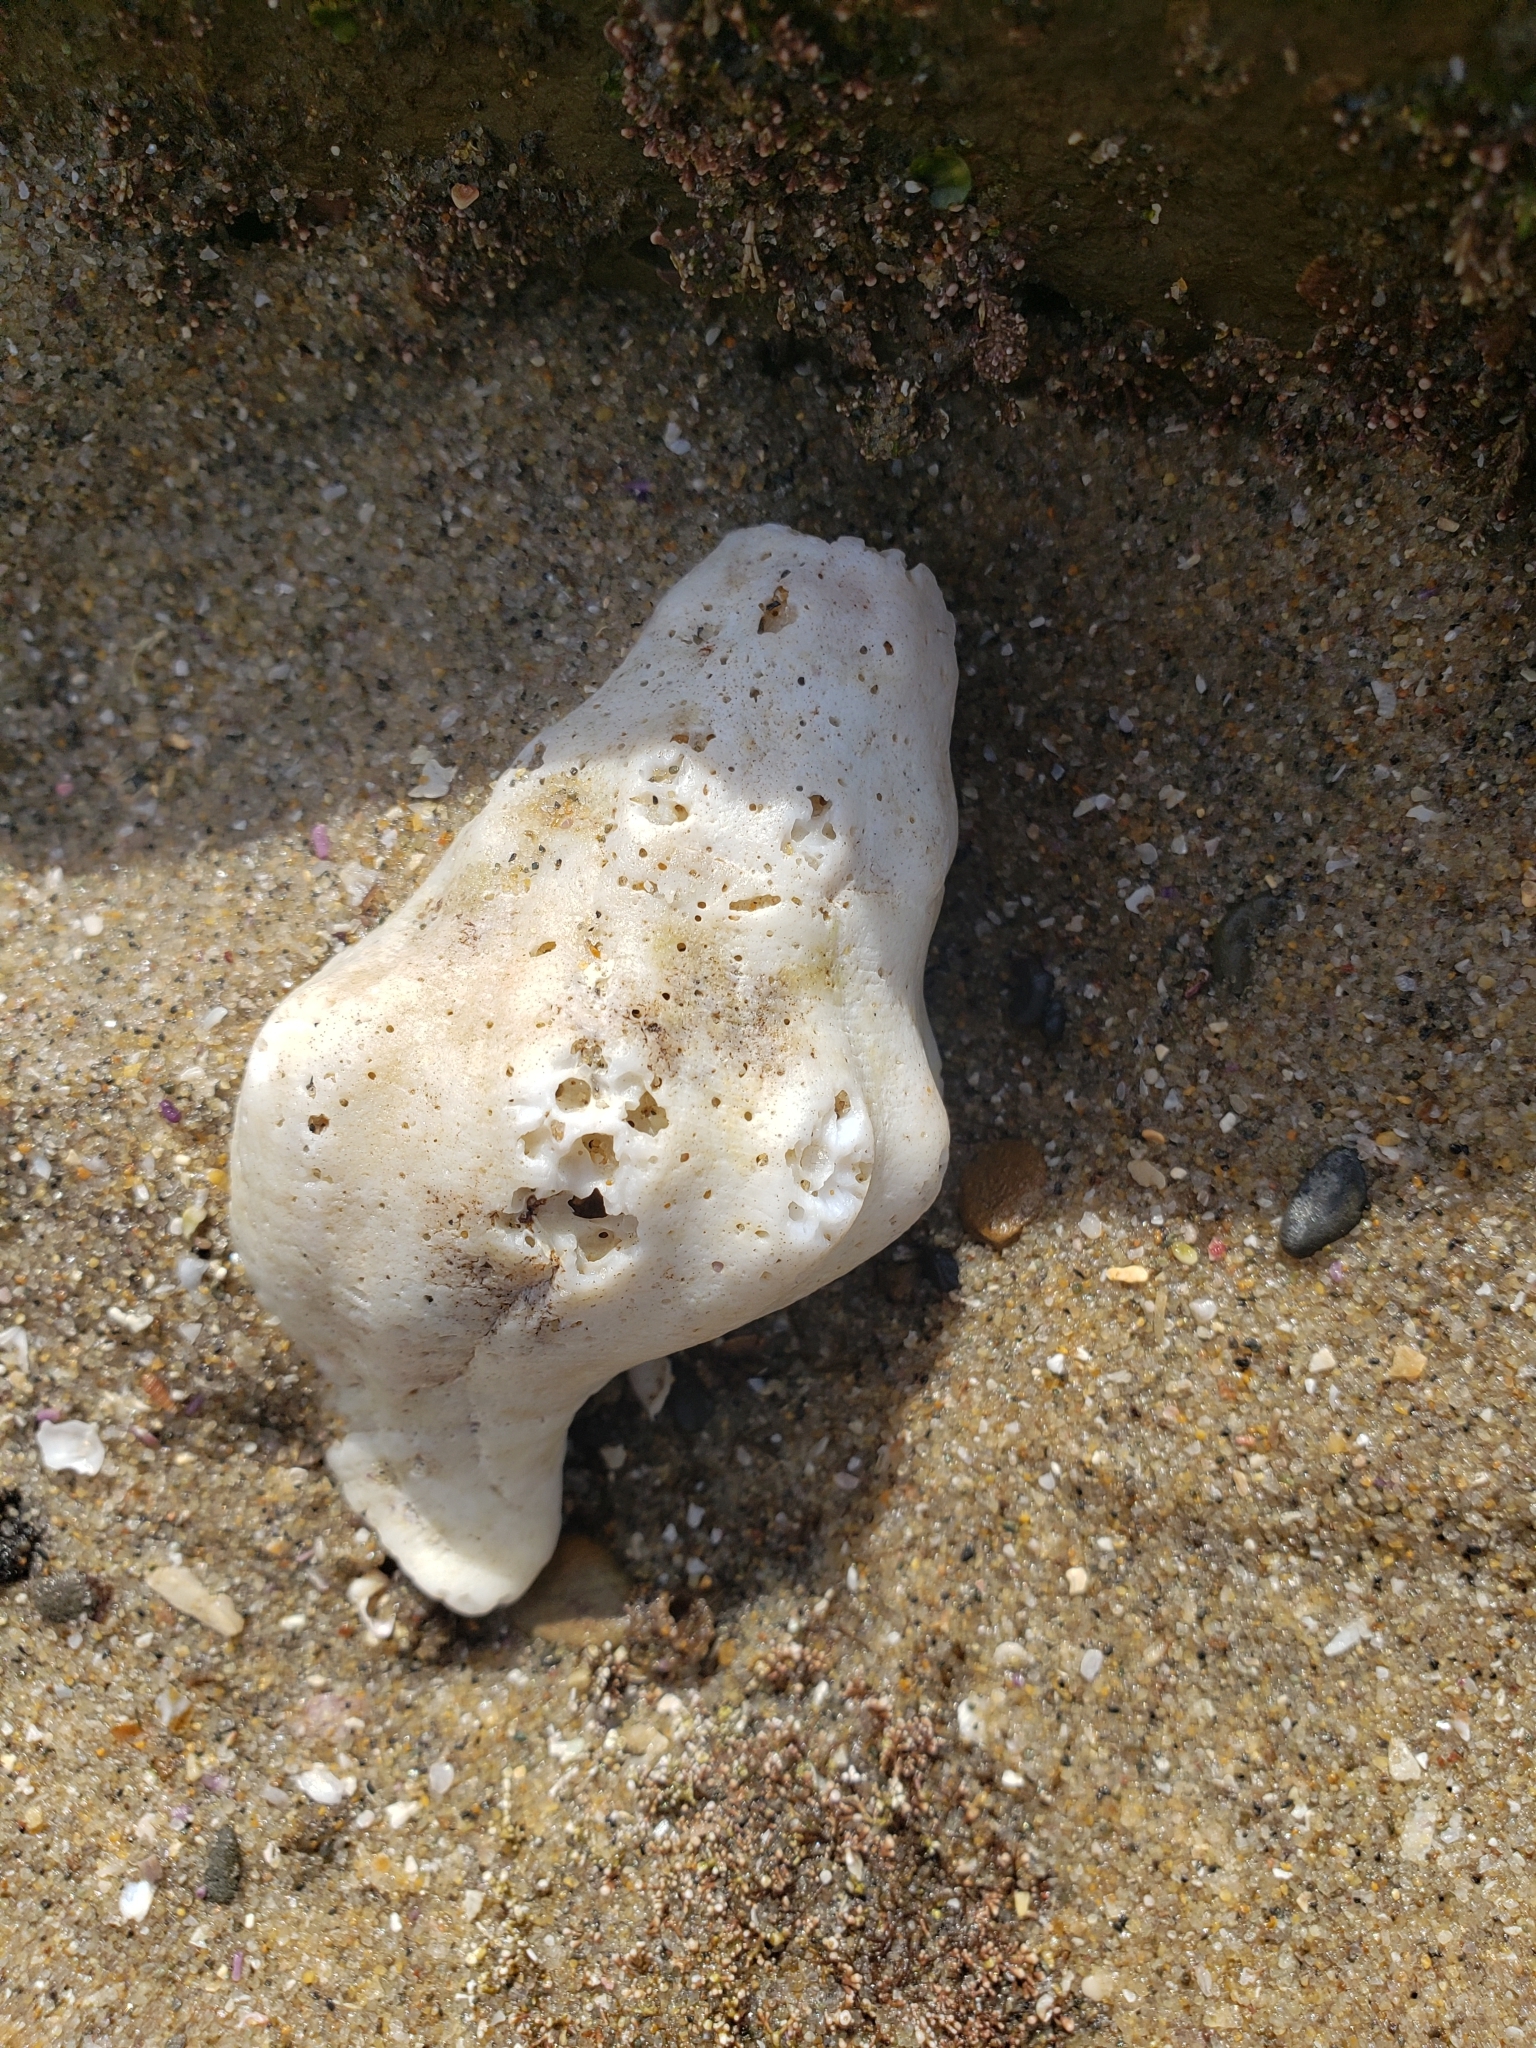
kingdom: Animalia
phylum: Mollusca
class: Gastropoda
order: Neogastropoda
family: Austrosiphonidae
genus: Kelletia
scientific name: Kelletia kelletii
